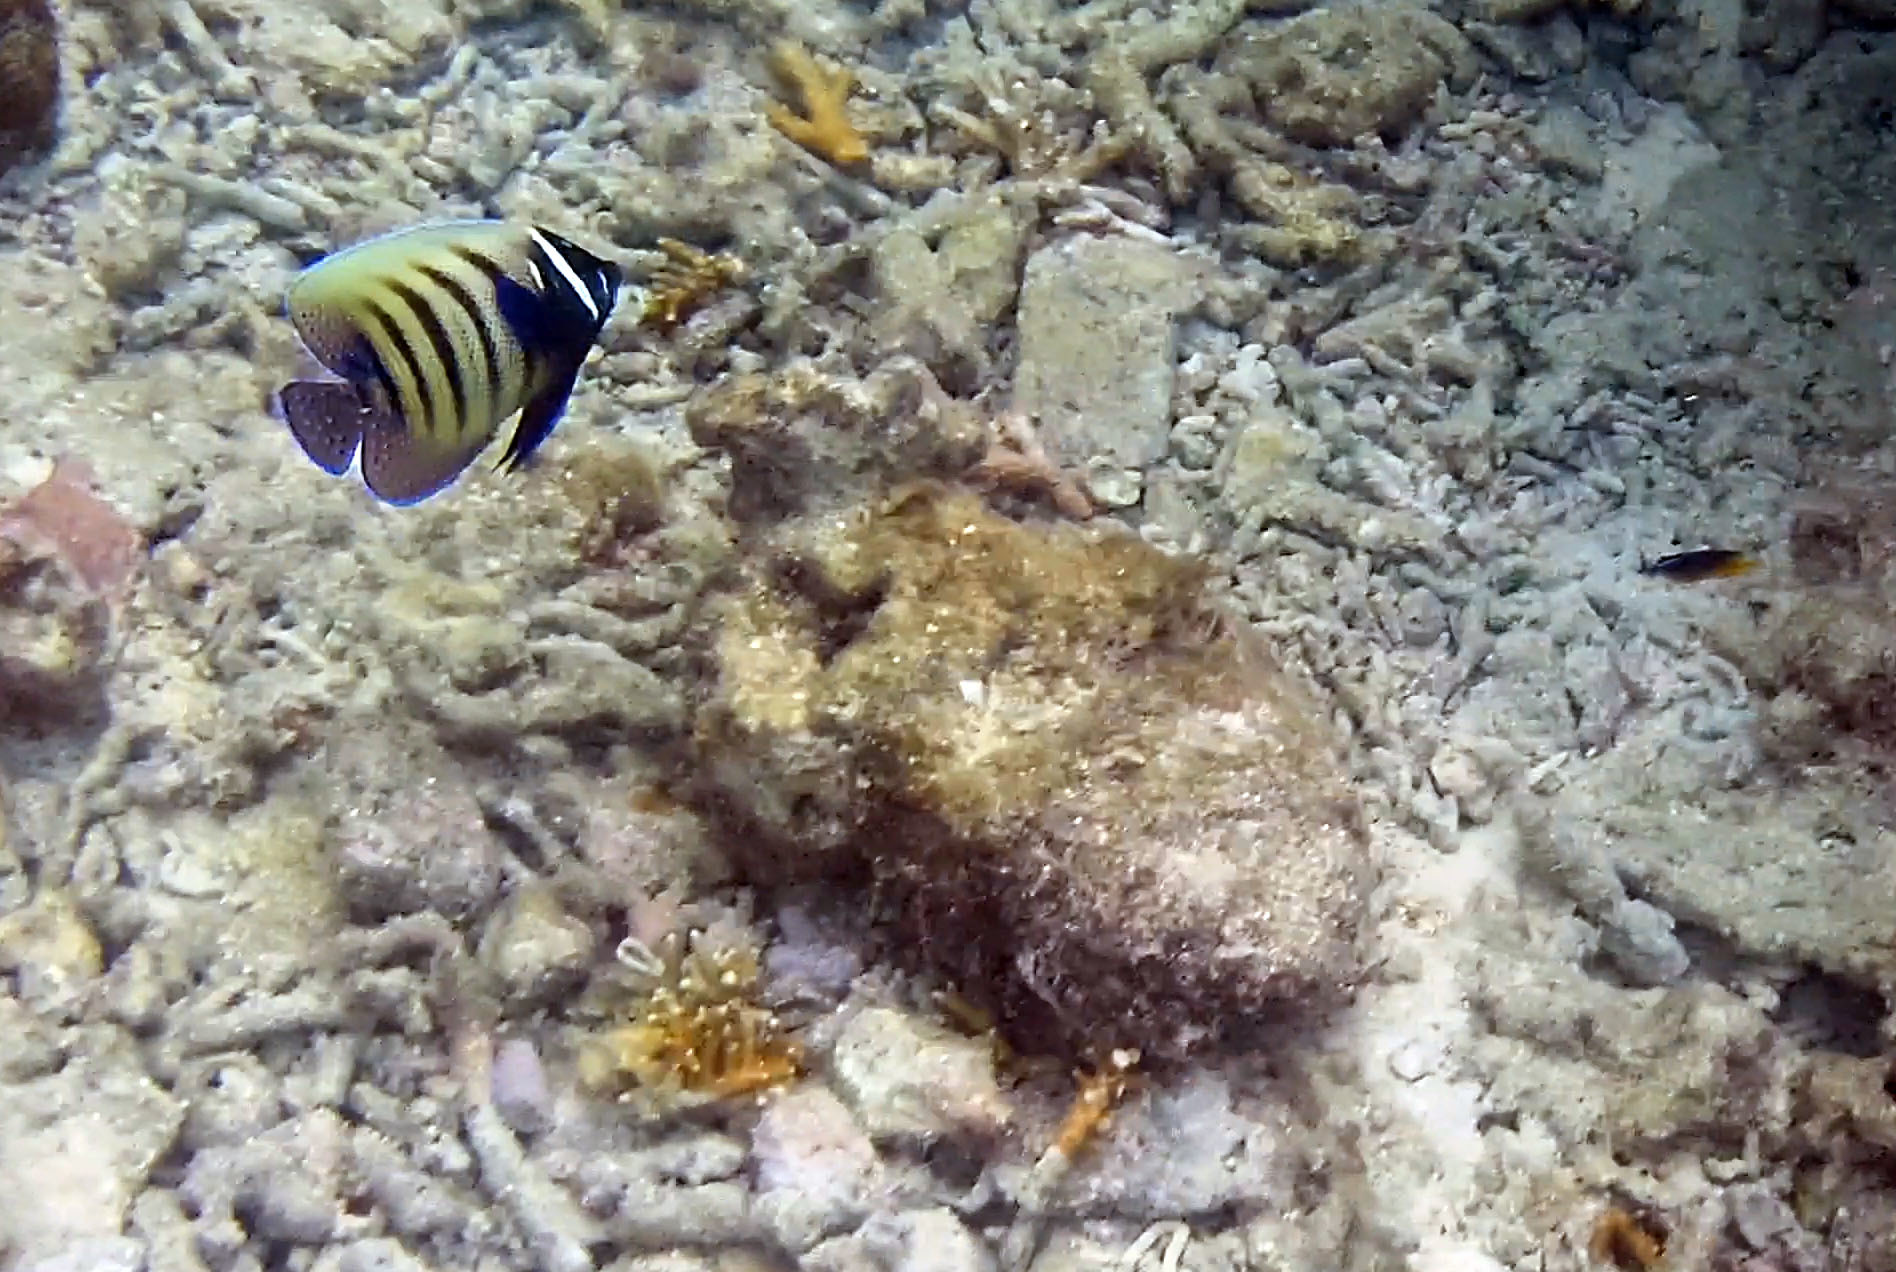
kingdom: Animalia
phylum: Chordata
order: Perciformes
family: Pomacanthidae
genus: Pomacanthus
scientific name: Pomacanthus sexstriatus
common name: Six-banded angelfish
